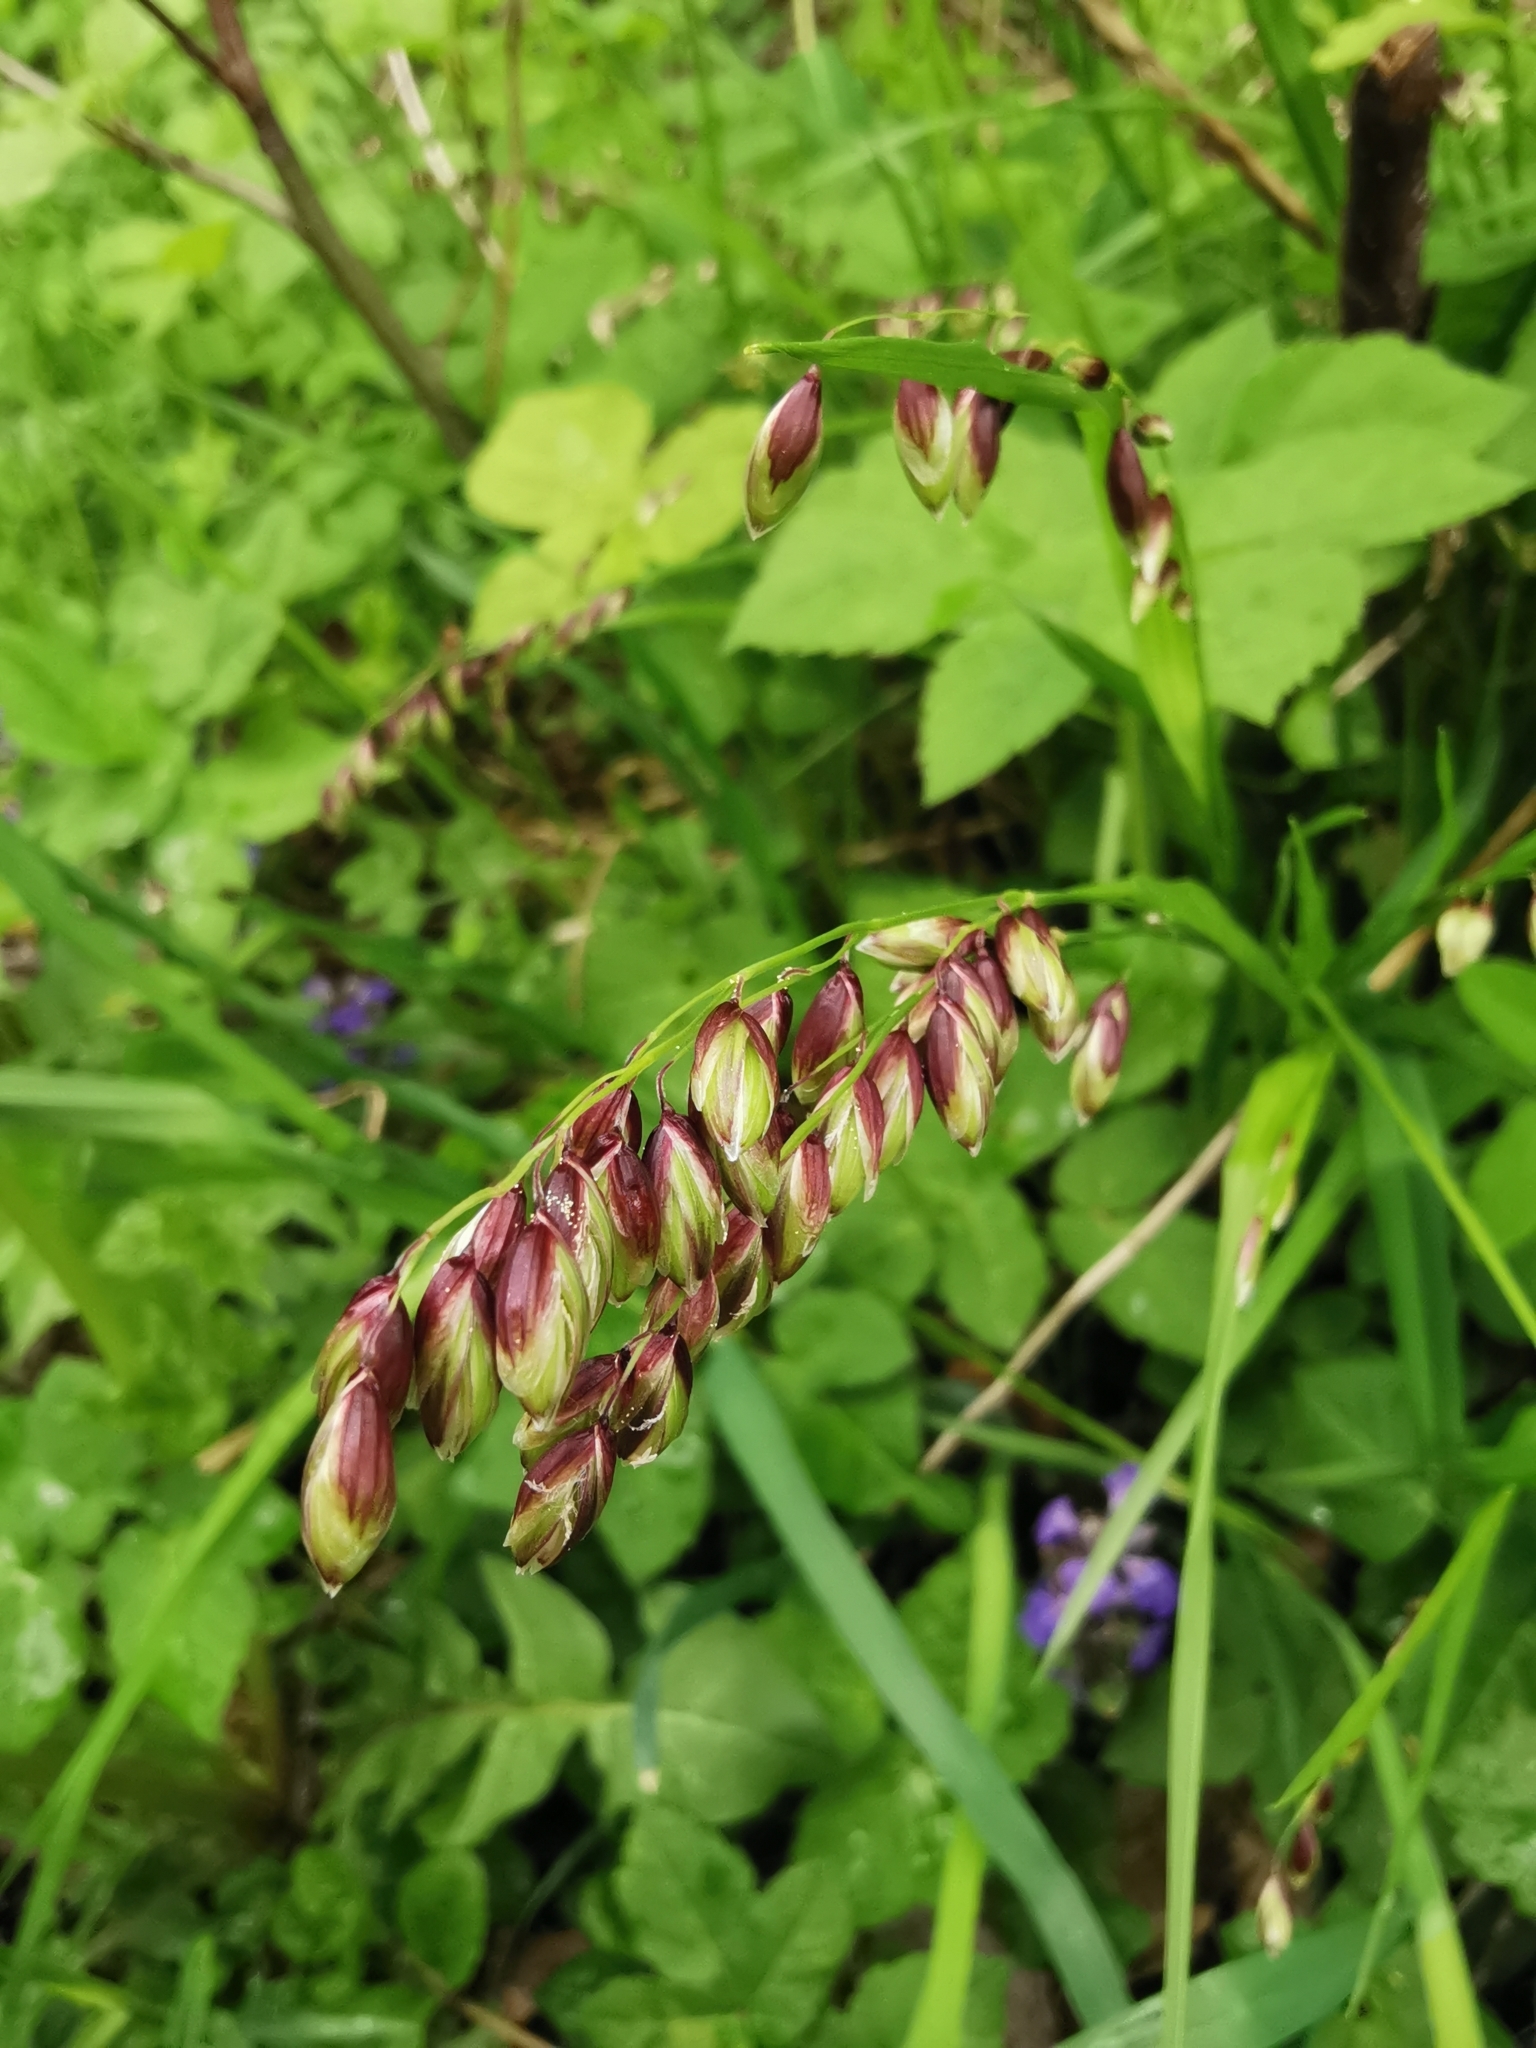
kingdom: Plantae
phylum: Tracheophyta
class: Liliopsida
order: Poales
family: Poaceae
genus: Melica
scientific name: Melica nutans
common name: Mountain melick
